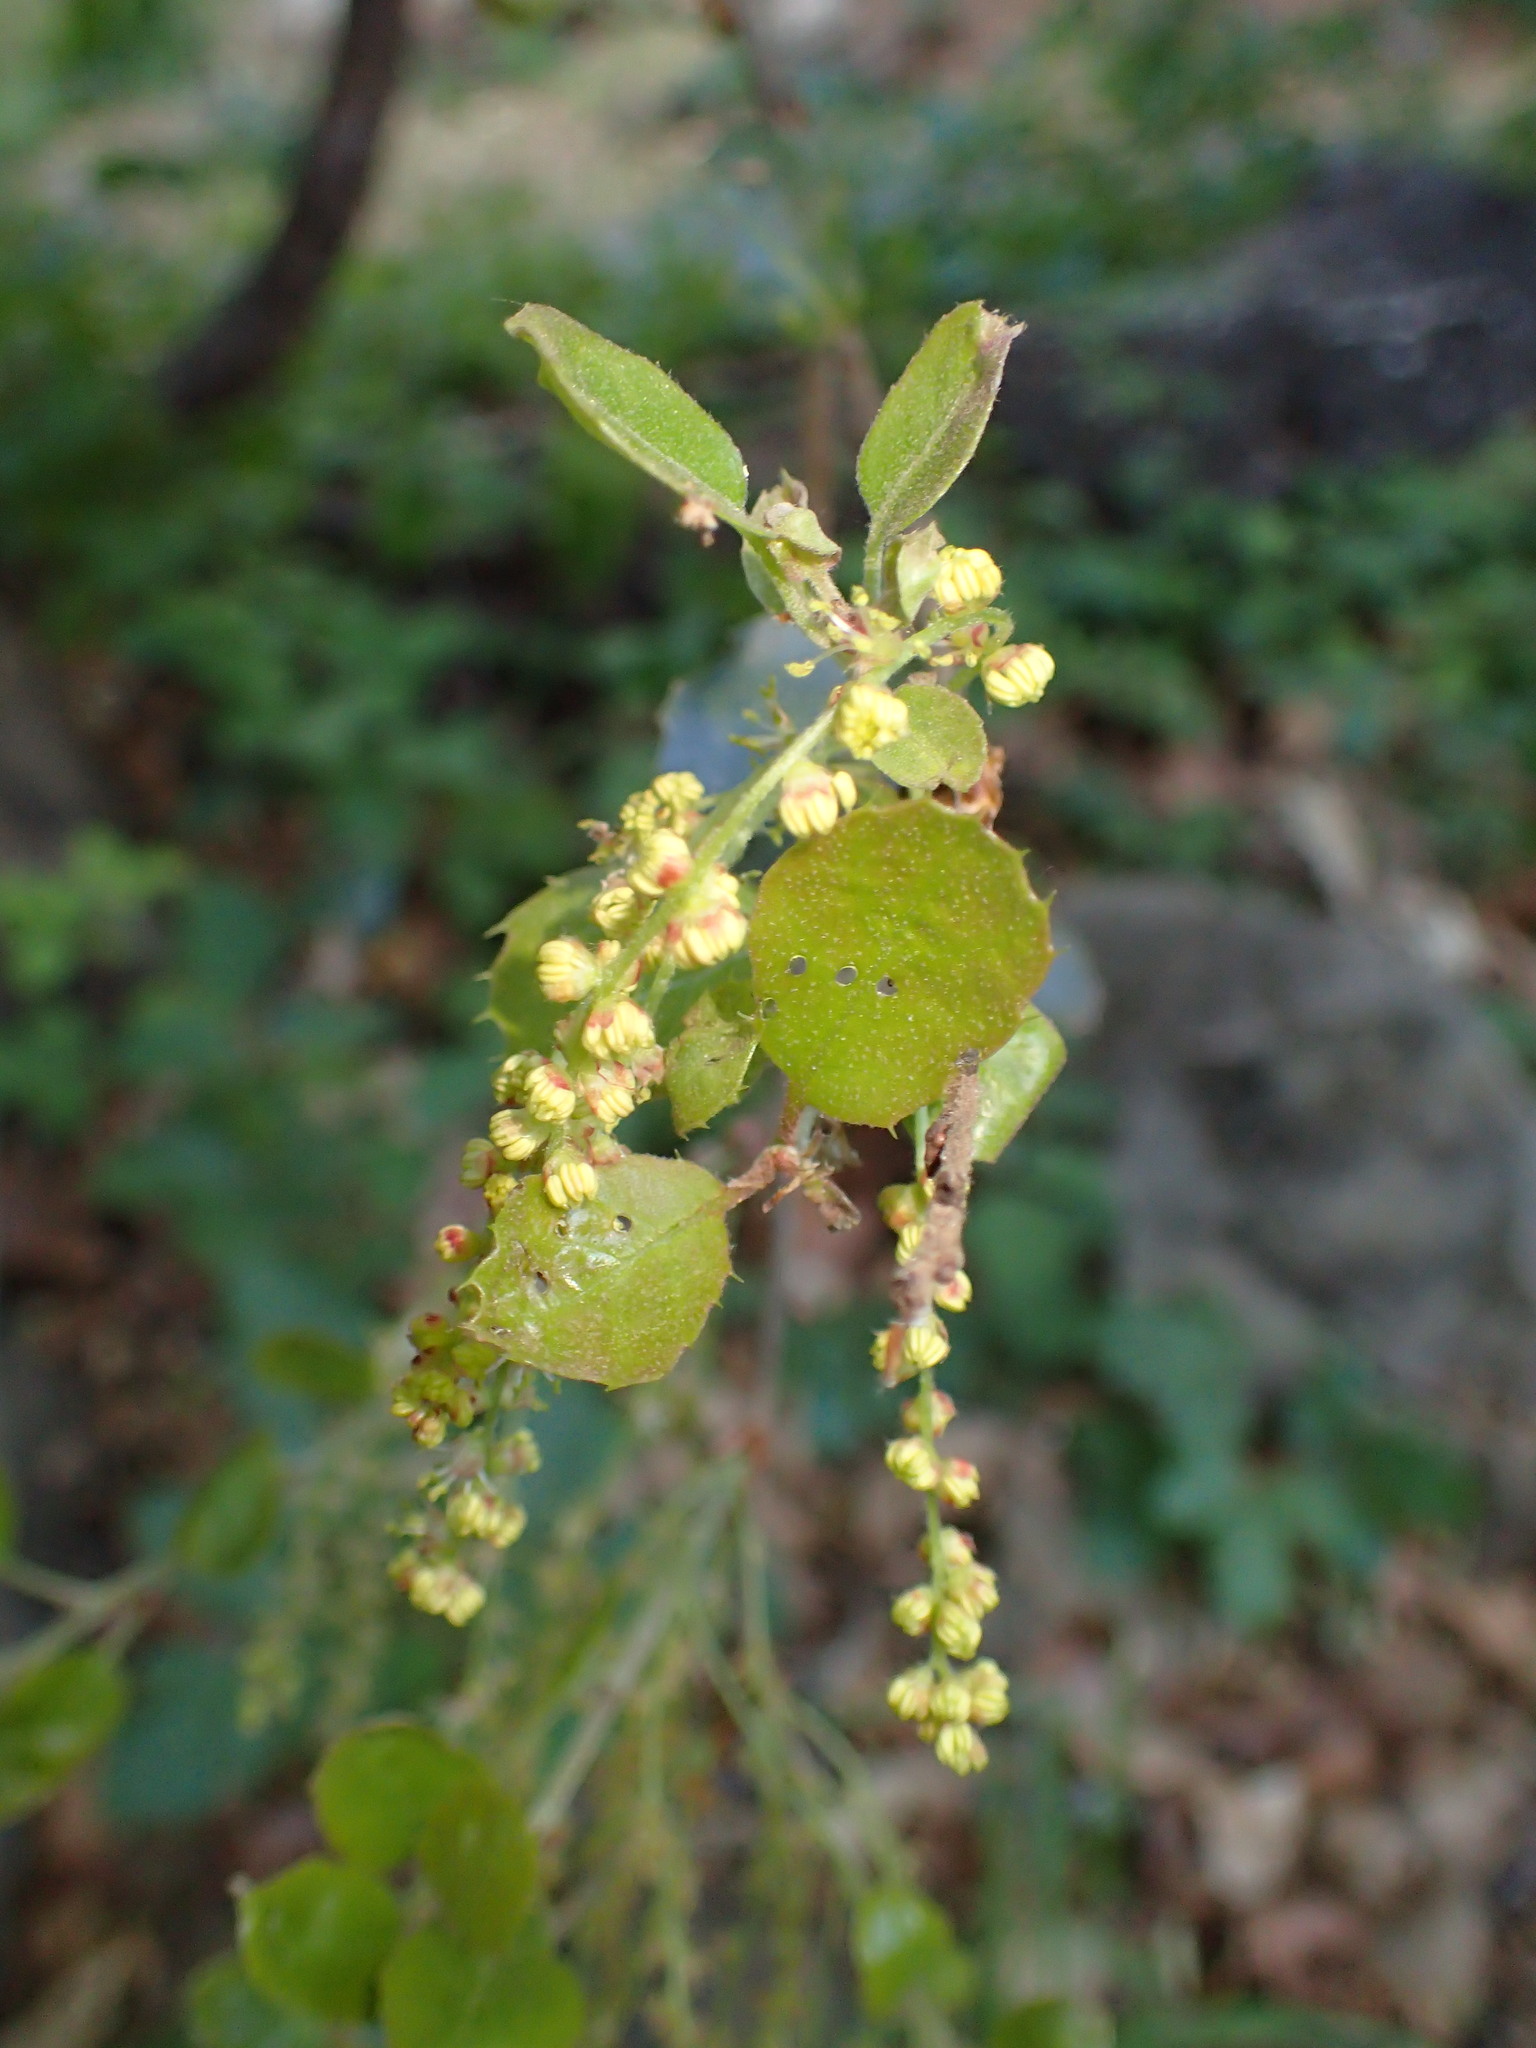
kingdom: Plantae
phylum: Tracheophyta
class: Magnoliopsida
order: Fagales
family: Fagaceae
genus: Quercus
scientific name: Quercus agrifolia
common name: California live oak
